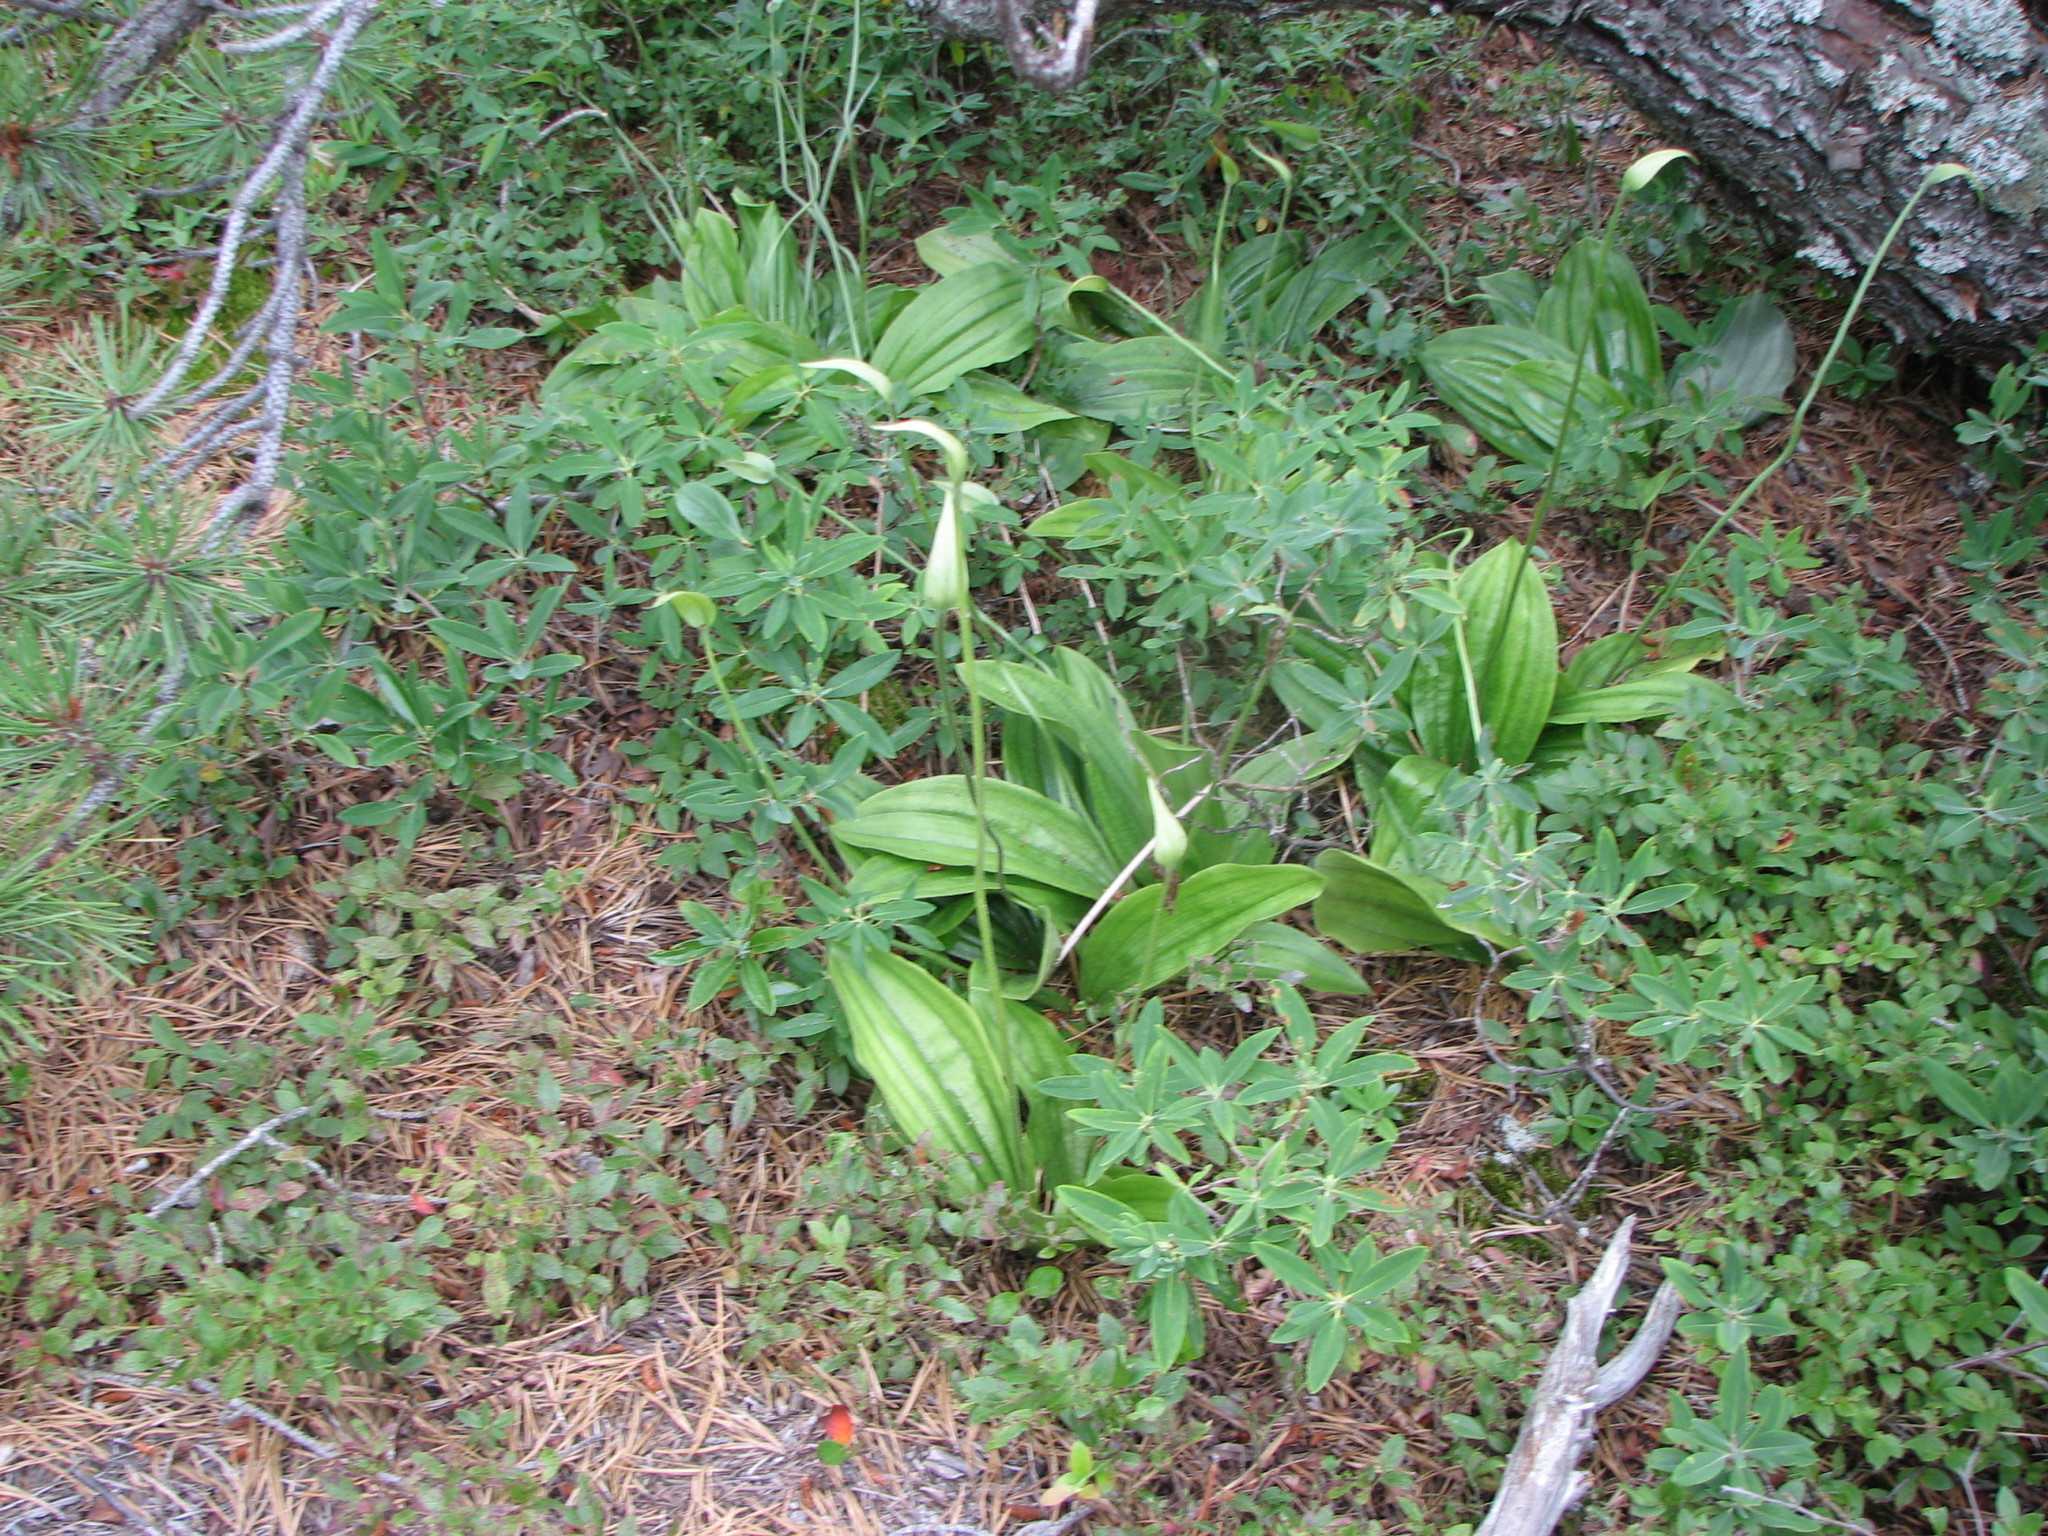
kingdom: Plantae
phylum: Tracheophyta
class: Liliopsida
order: Asparagales
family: Orchidaceae
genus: Cypripedium
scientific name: Cypripedium acaule
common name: Pink lady's-slipper
